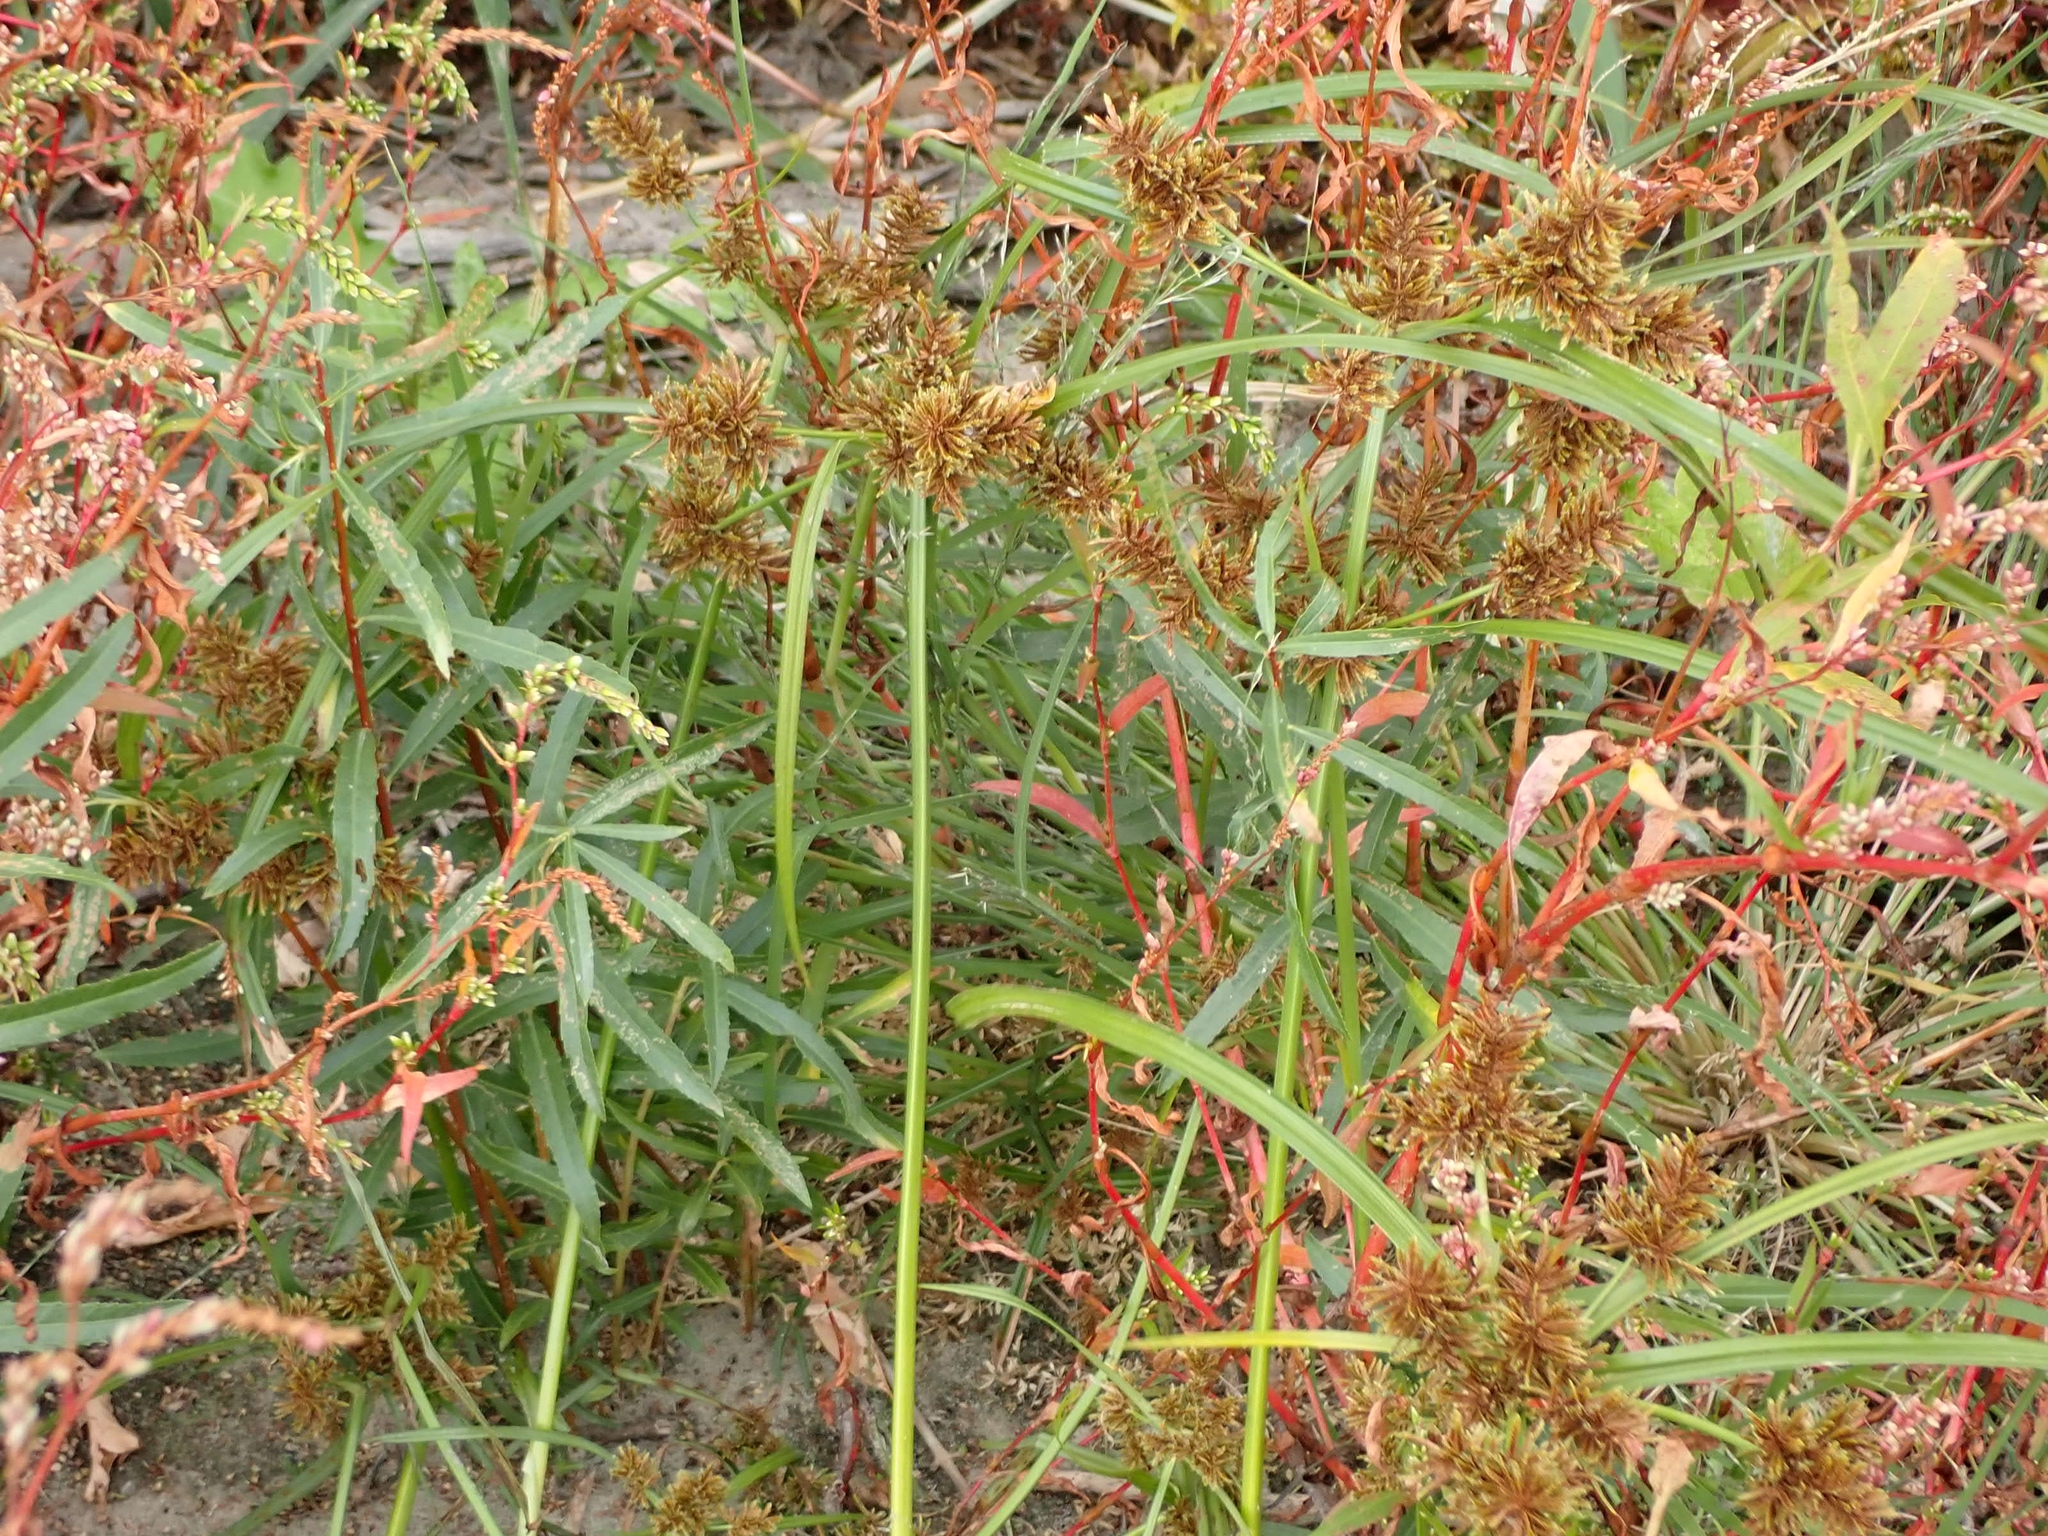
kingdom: Plantae
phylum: Tracheophyta
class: Liliopsida
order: Poales
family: Cyperaceae
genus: Cyperus
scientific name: Cyperus erythrorhizos
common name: Red-root flat sedge
